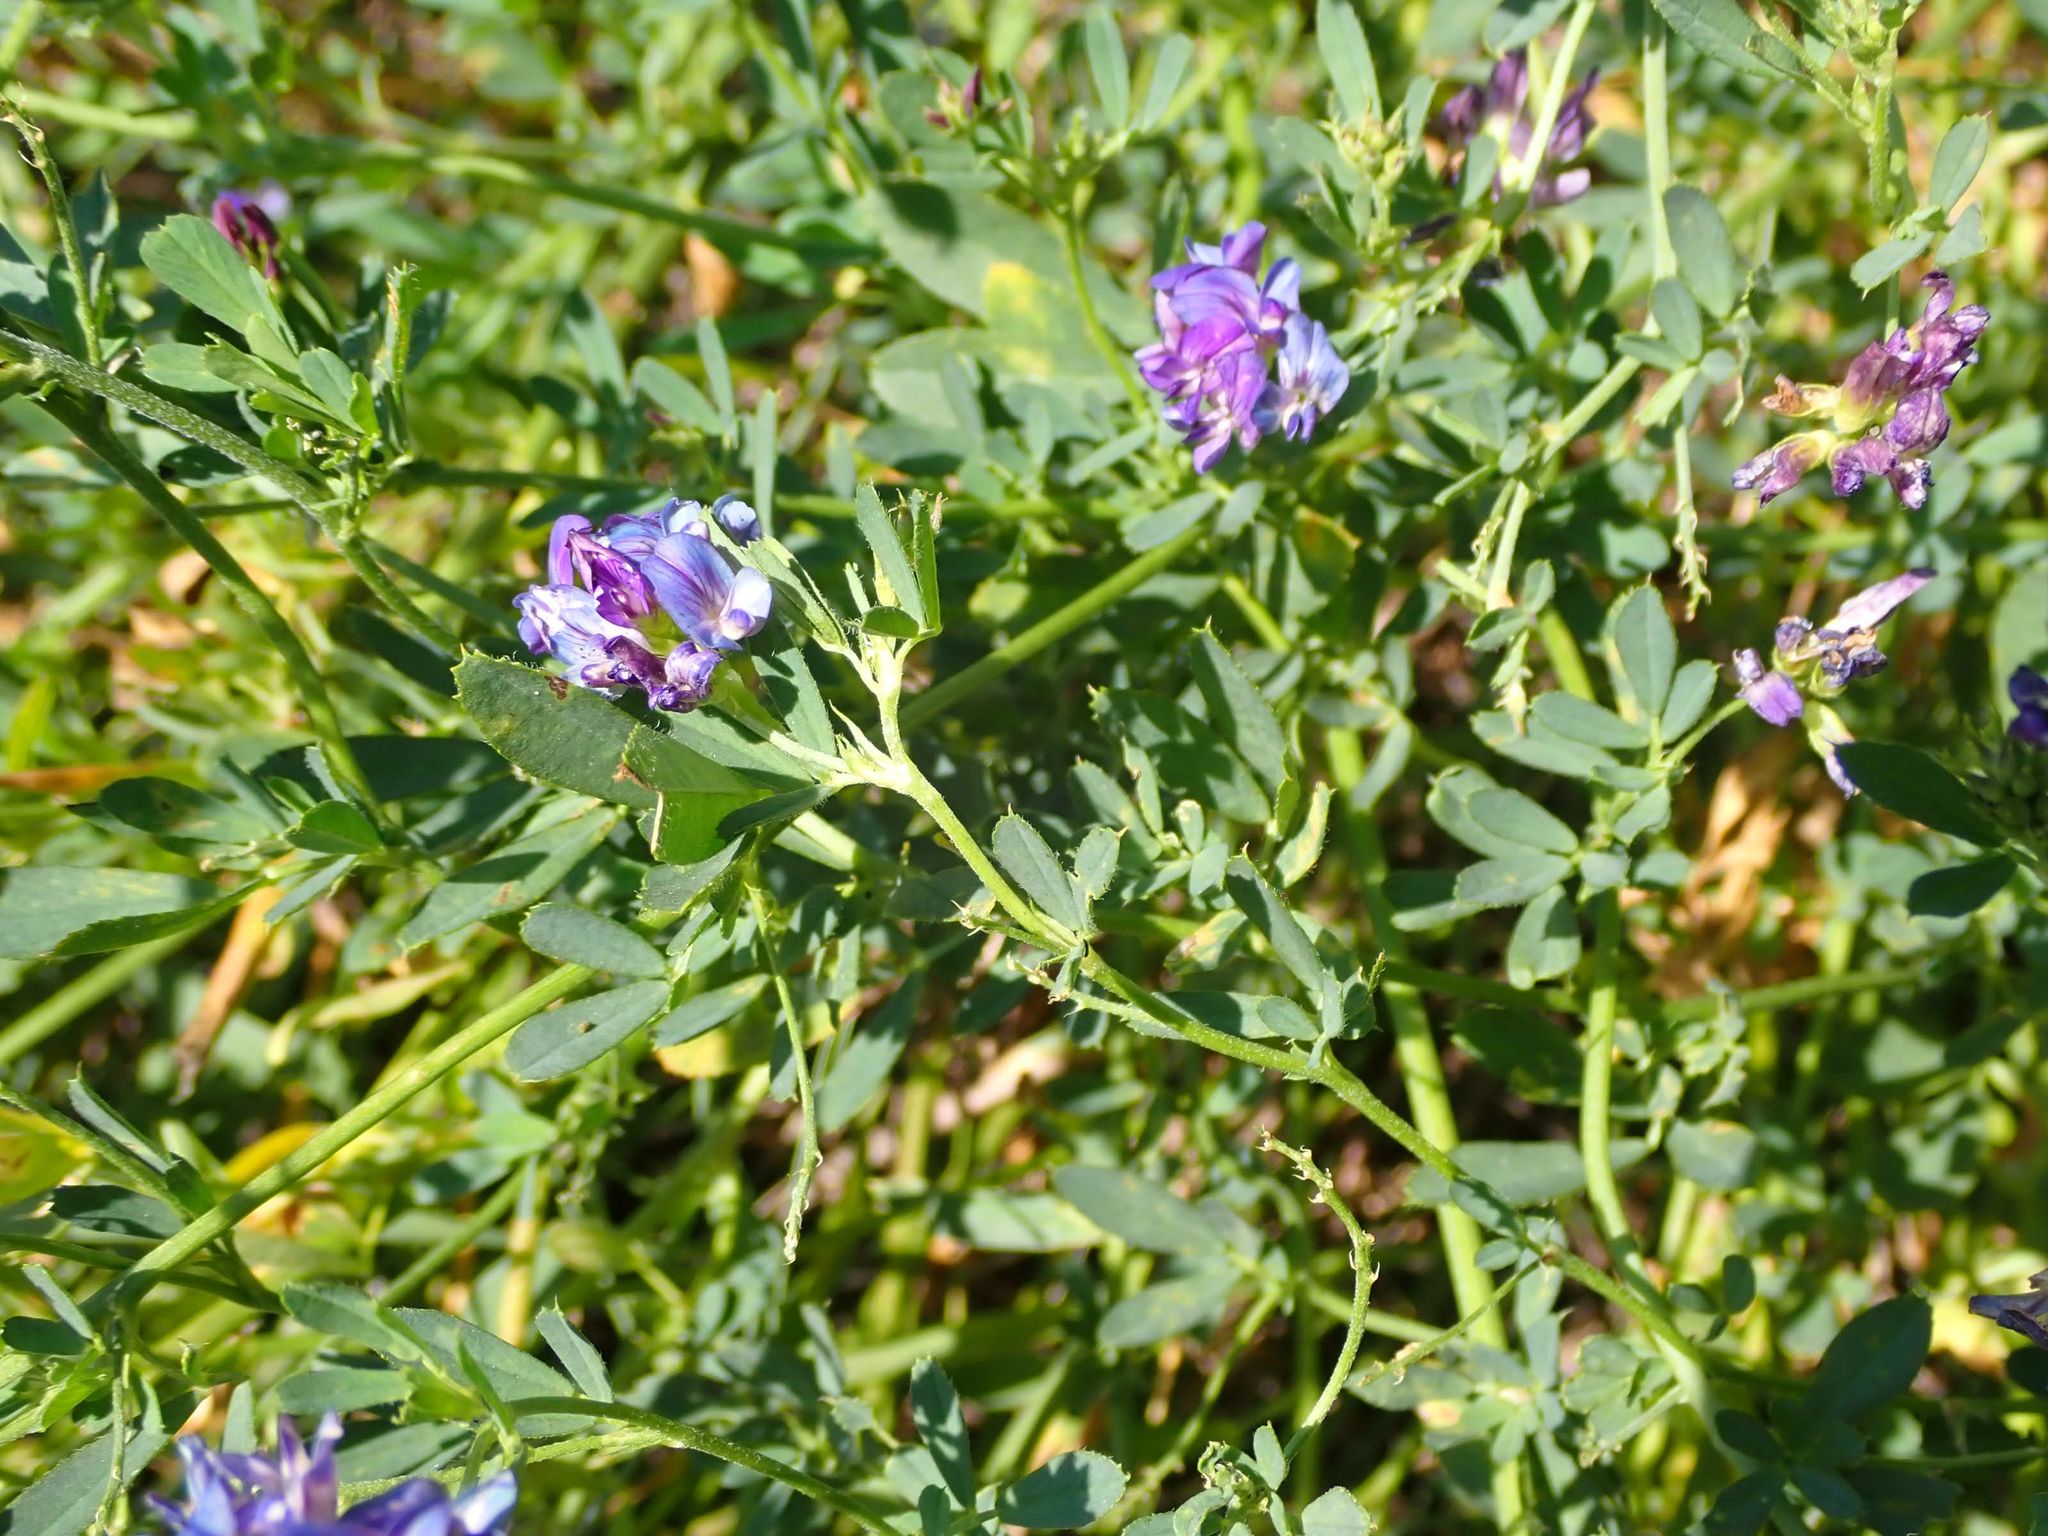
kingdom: Plantae
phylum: Tracheophyta
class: Magnoliopsida
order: Fabales
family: Fabaceae
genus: Medicago
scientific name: Medicago sativa
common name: Alfalfa
